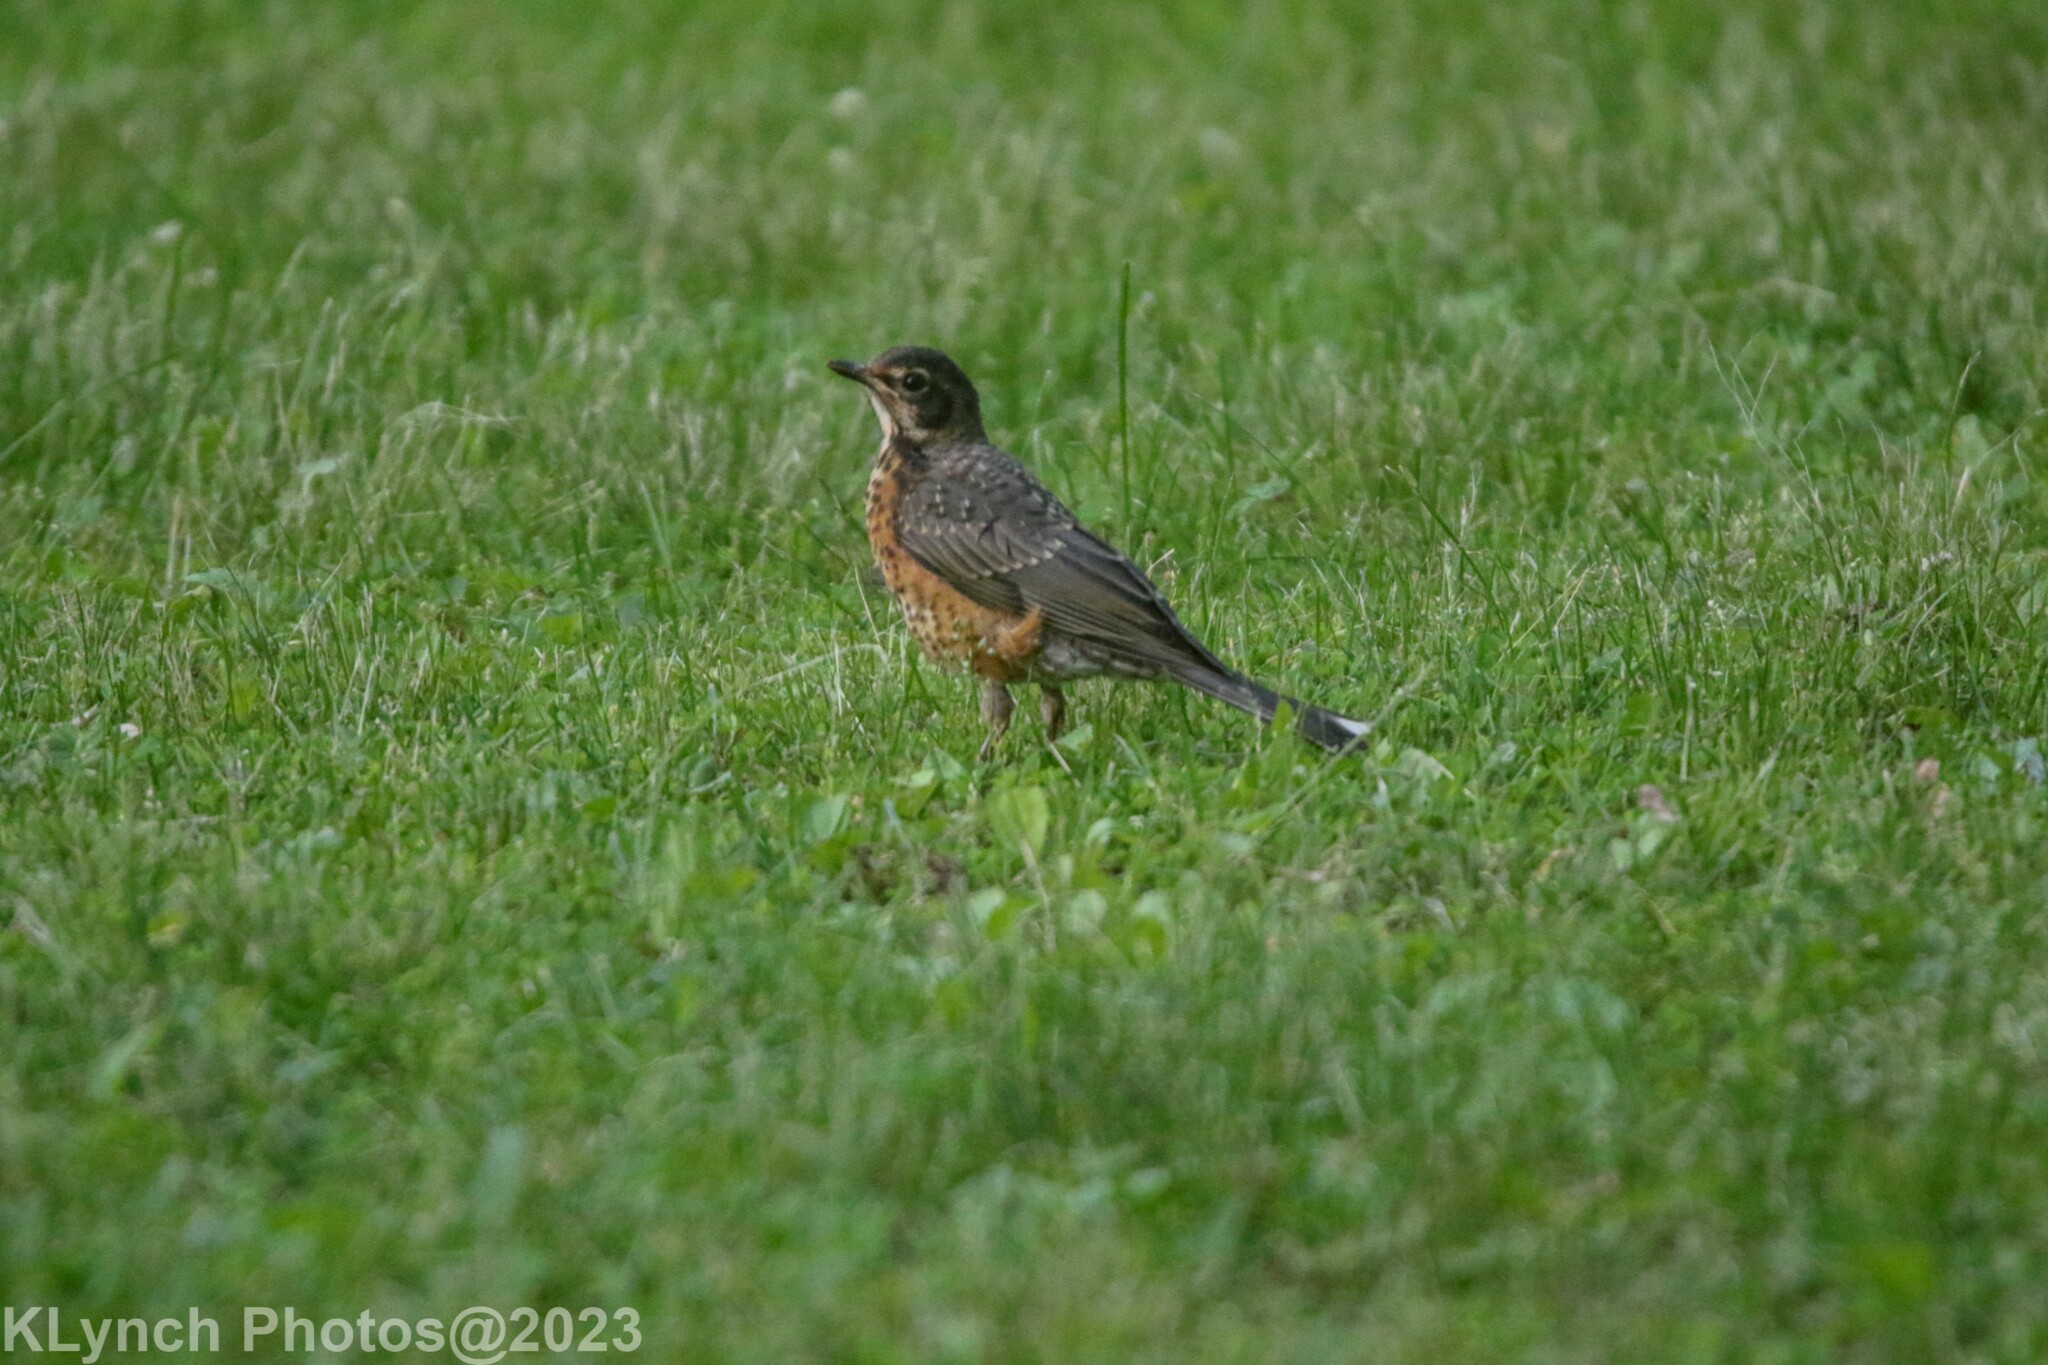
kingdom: Animalia
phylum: Chordata
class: Aves
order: Passeriformes
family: Turdidae
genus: Turdus
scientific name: Turdus migratorius
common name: American robin
